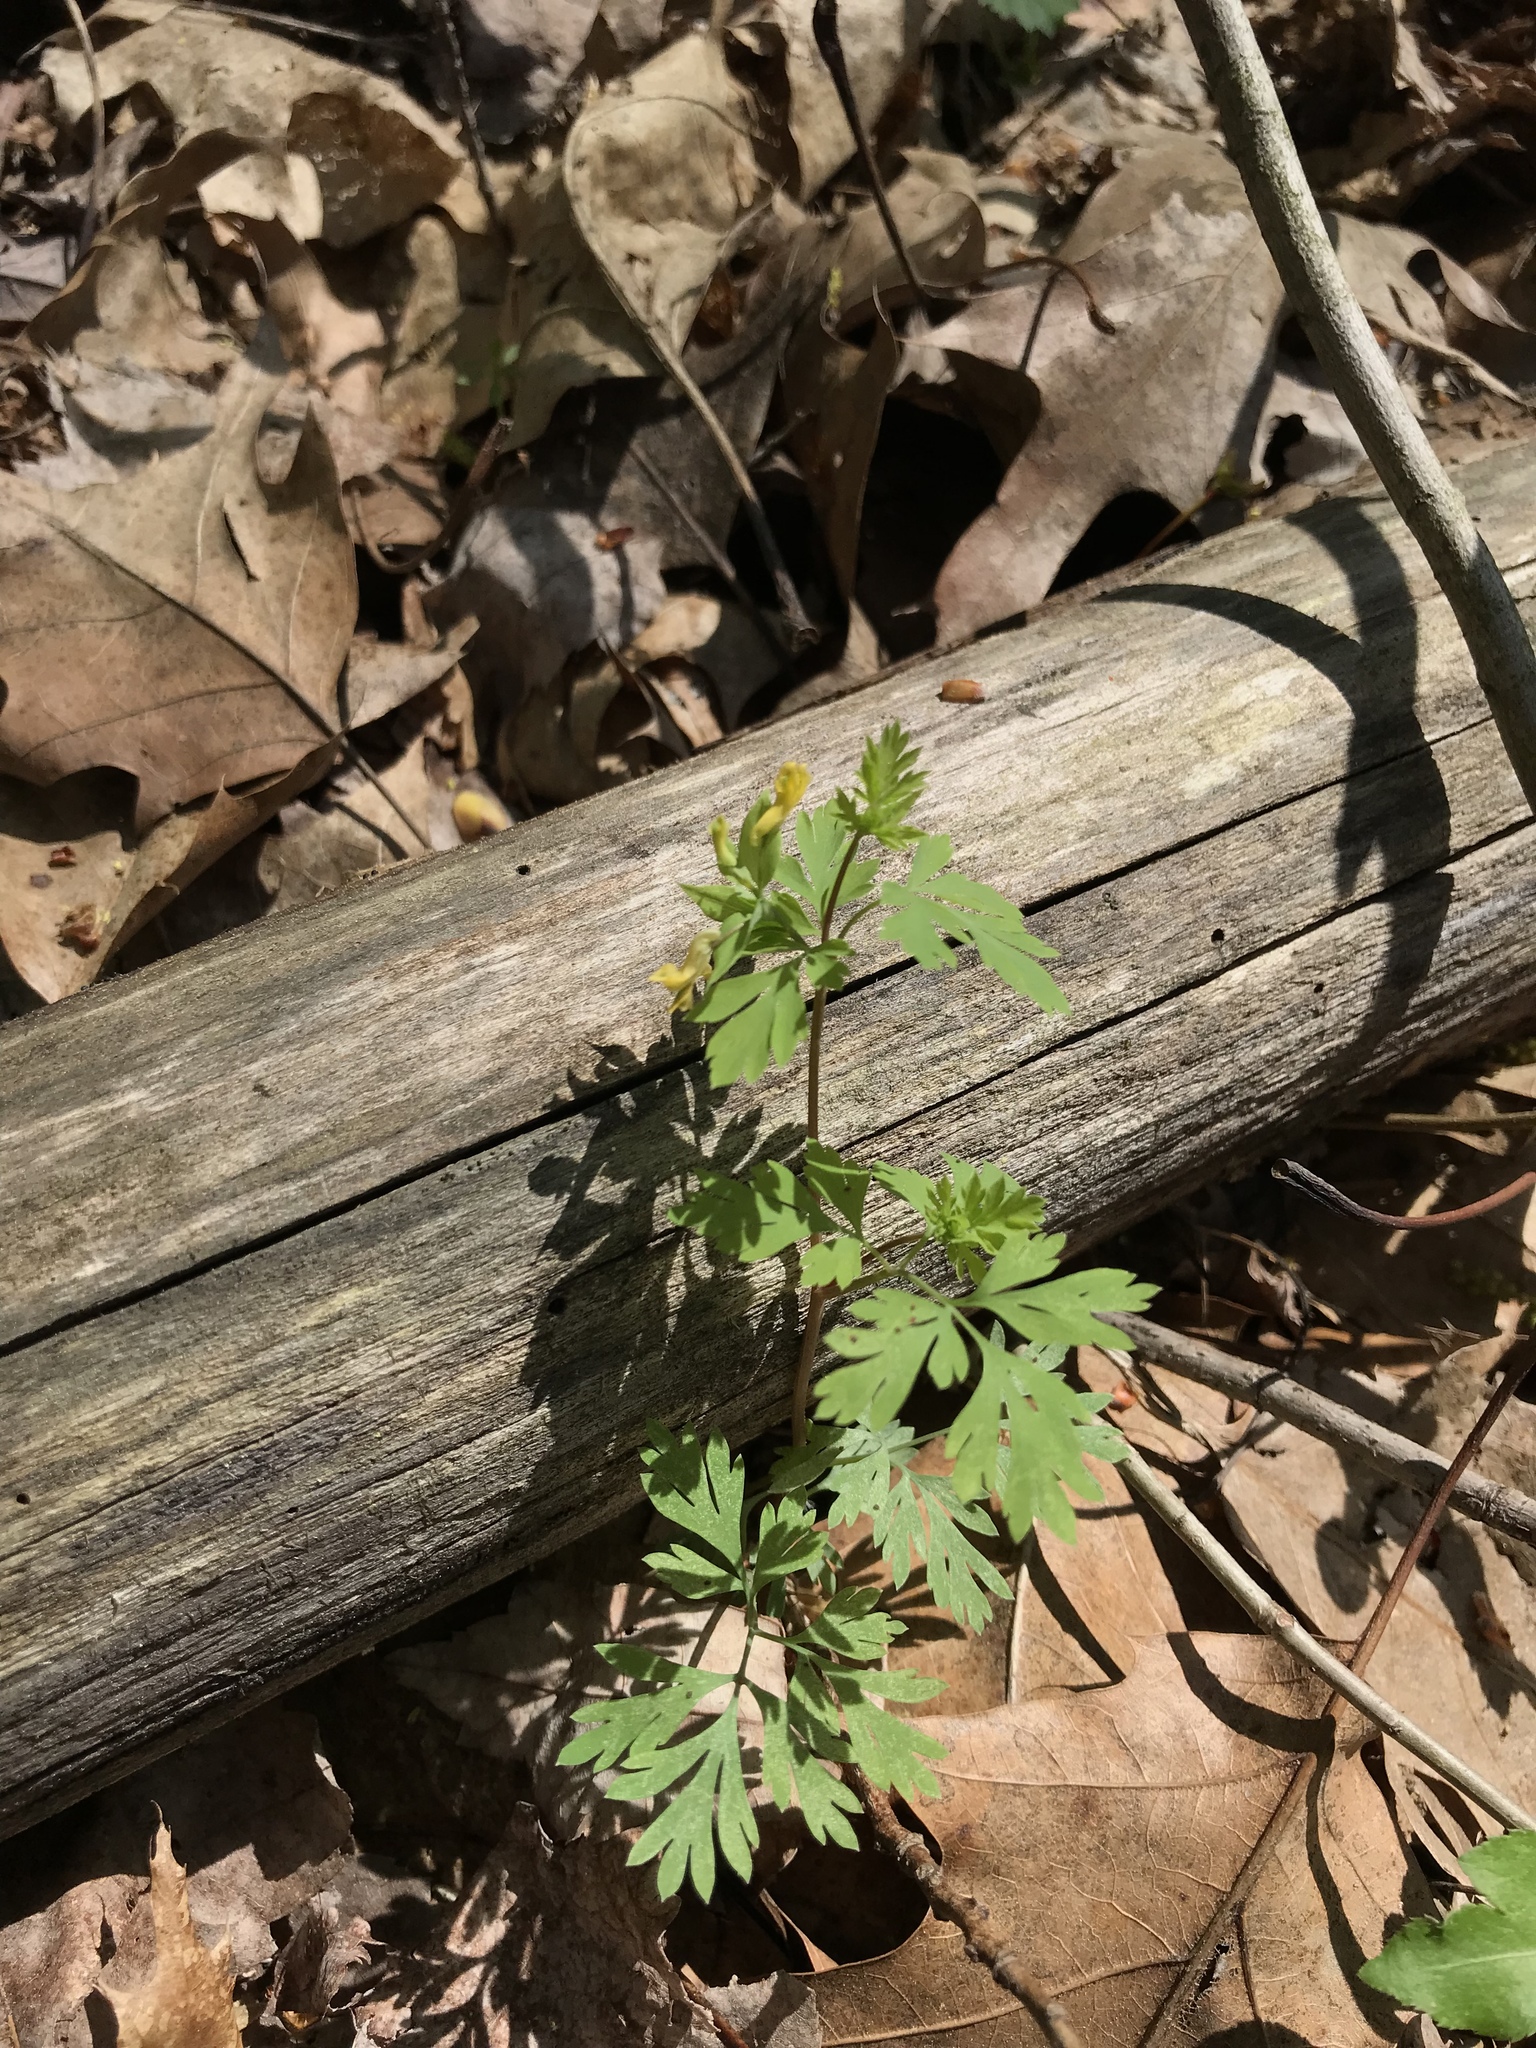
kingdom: Plantae
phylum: Tracheophyta
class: Magnoliopsida
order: Ranunculales
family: Papaveraceae
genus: Corydalis
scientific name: Corydalis flavula
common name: Yellow corydalis
